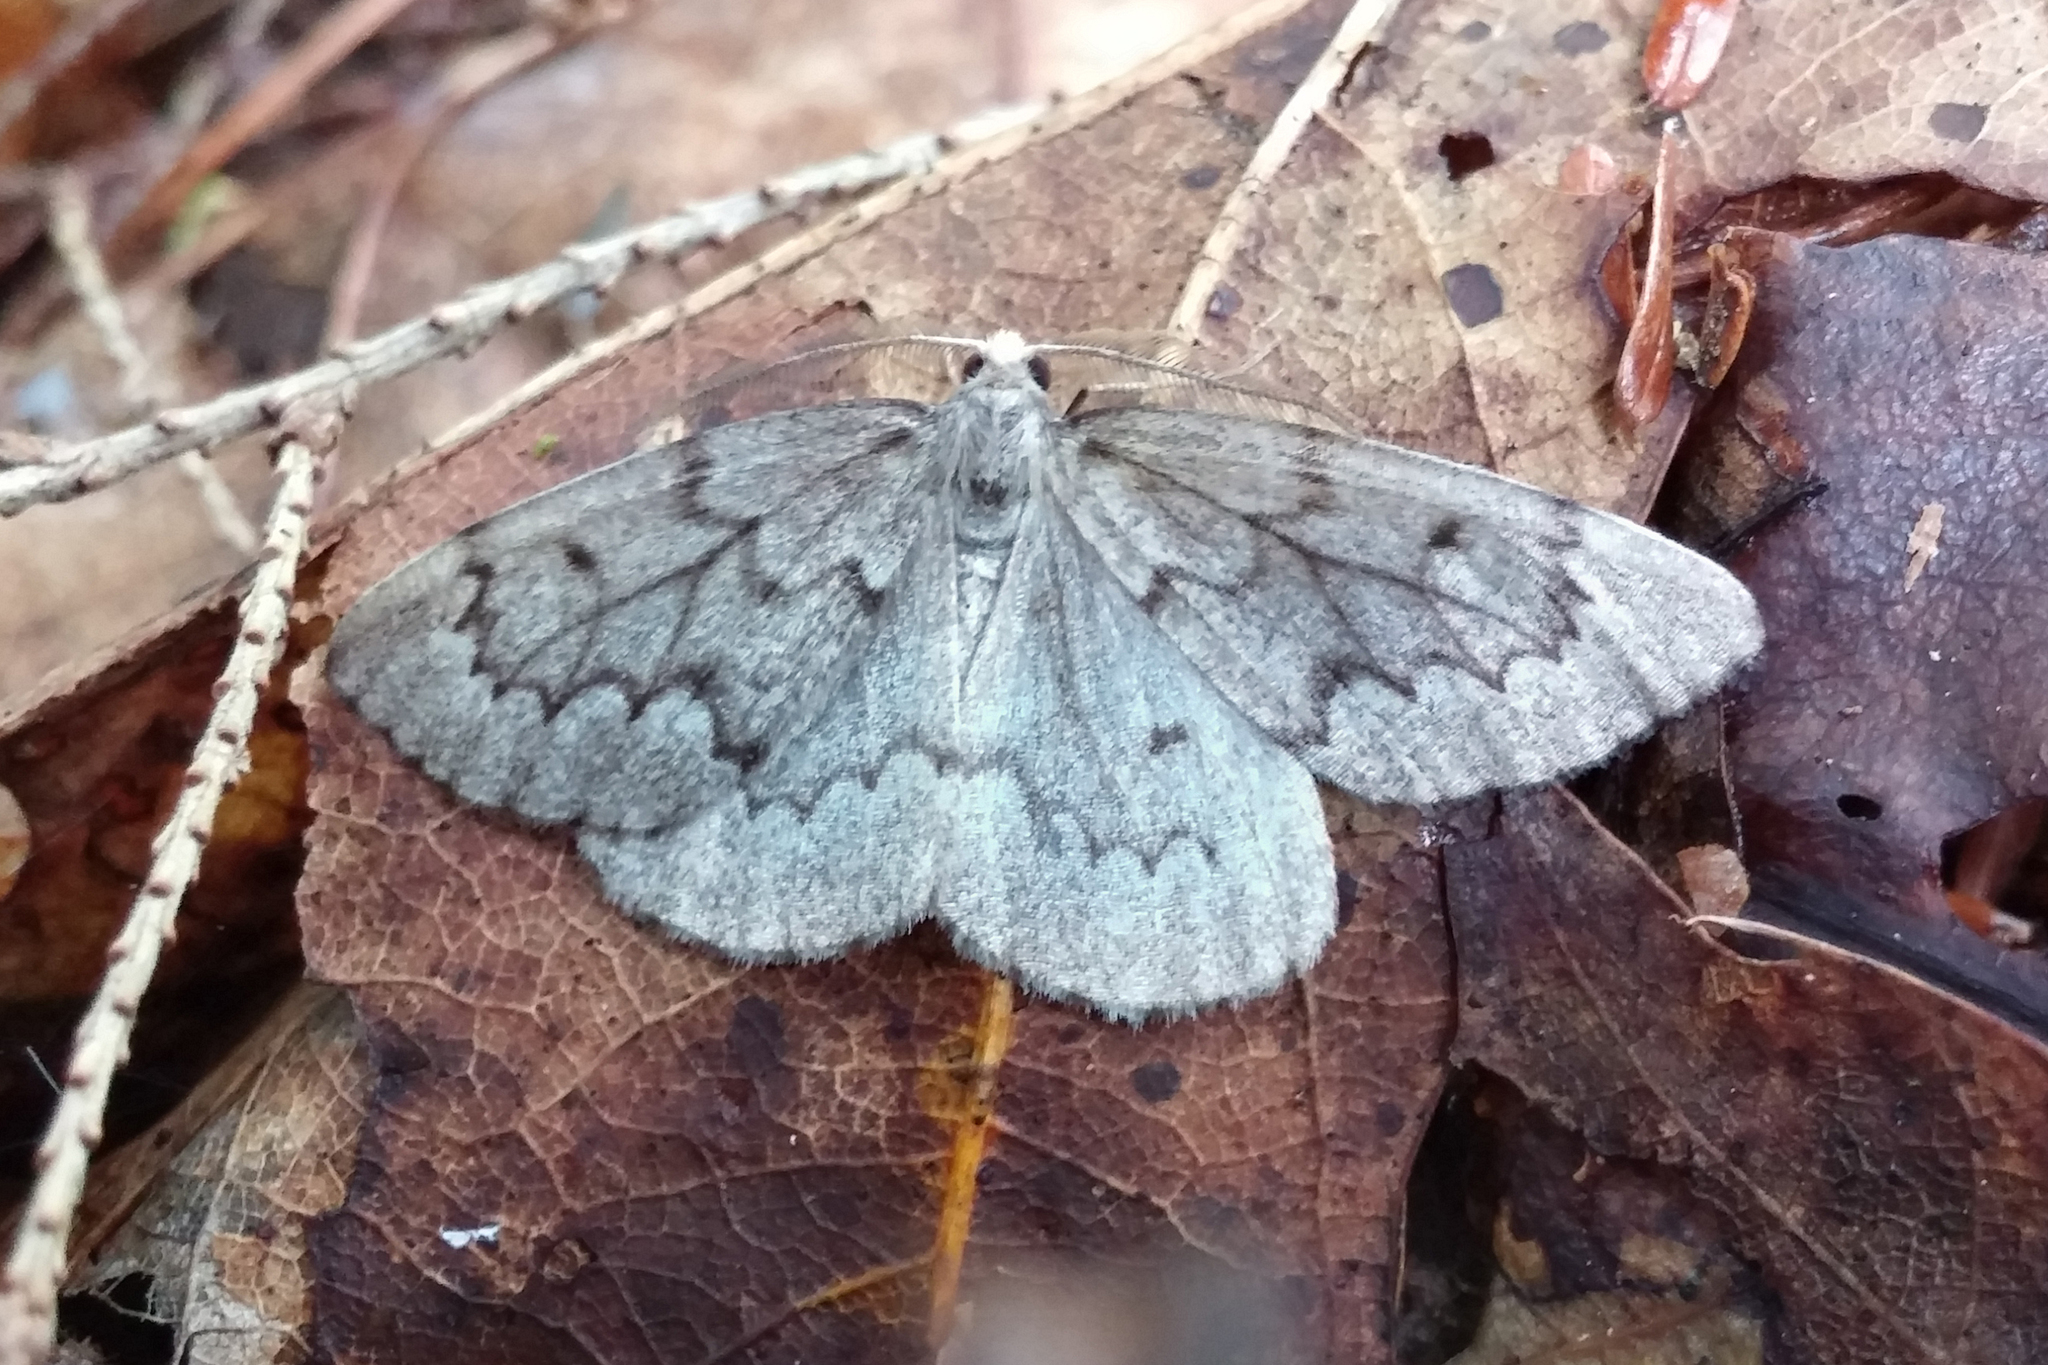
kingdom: Animalia
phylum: Arthropoda
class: Insecta
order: Lepidoptera
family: Geometridae
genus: Nepytia
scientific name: Nepytia canosaria
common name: False hemlock looper
